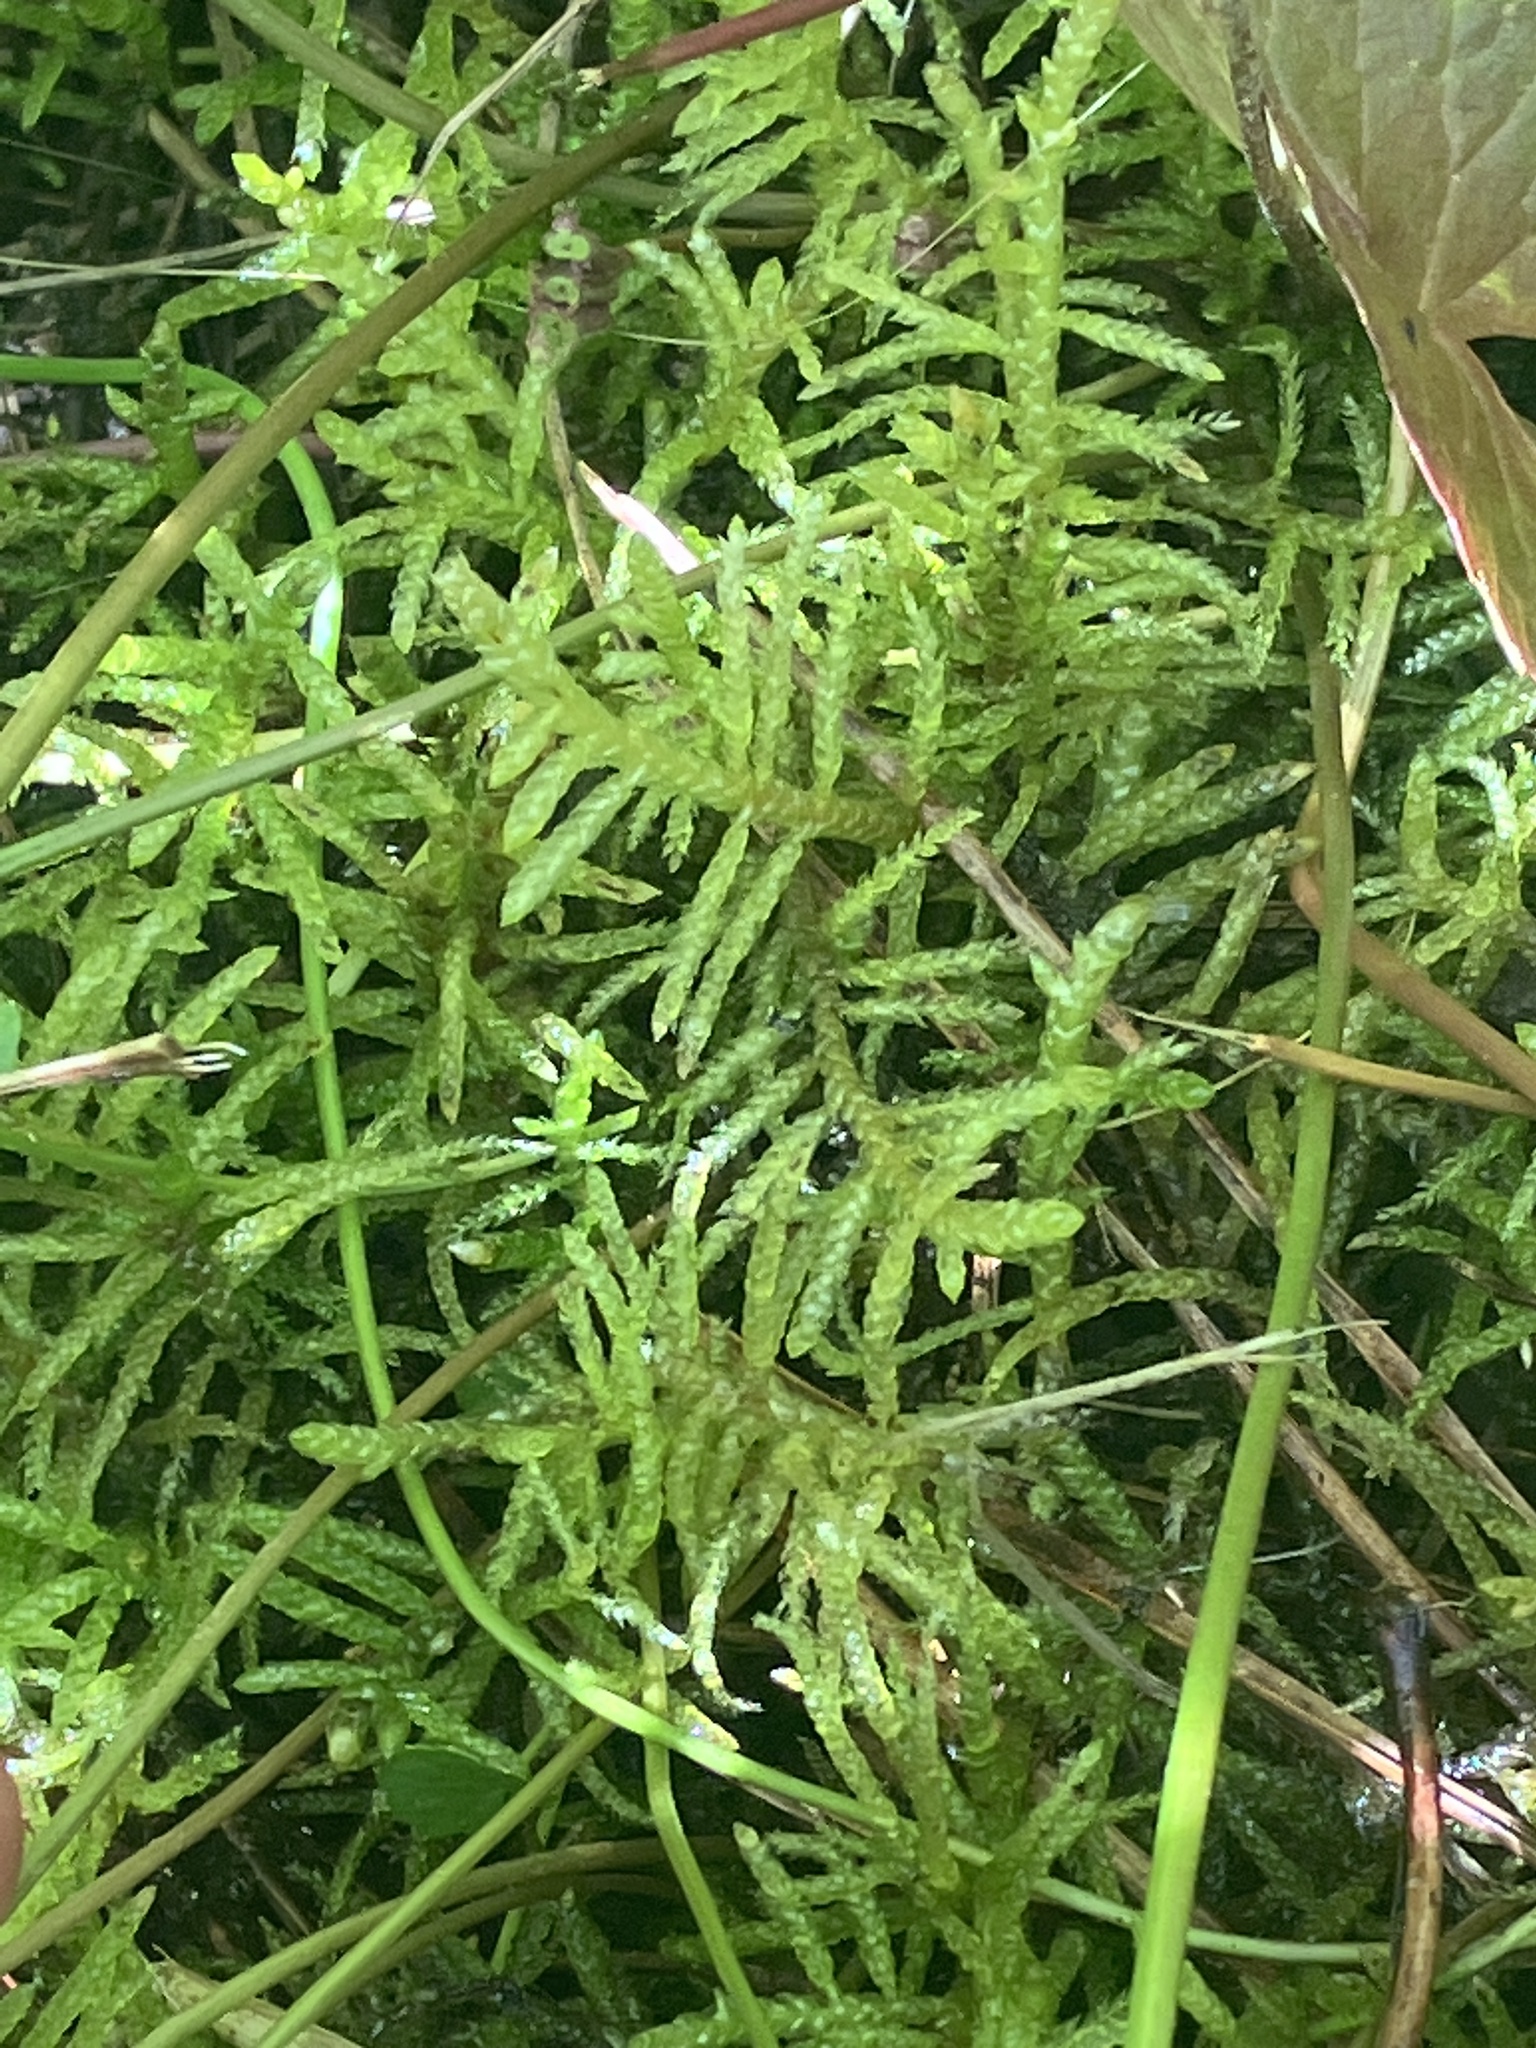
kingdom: Plantae
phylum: Bryophyta
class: Bryopsida
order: Hypnales
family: Brachytheciaceae
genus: Pseudoscleropodium
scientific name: Pseudoscleropodium purum
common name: Neat feather-moss
